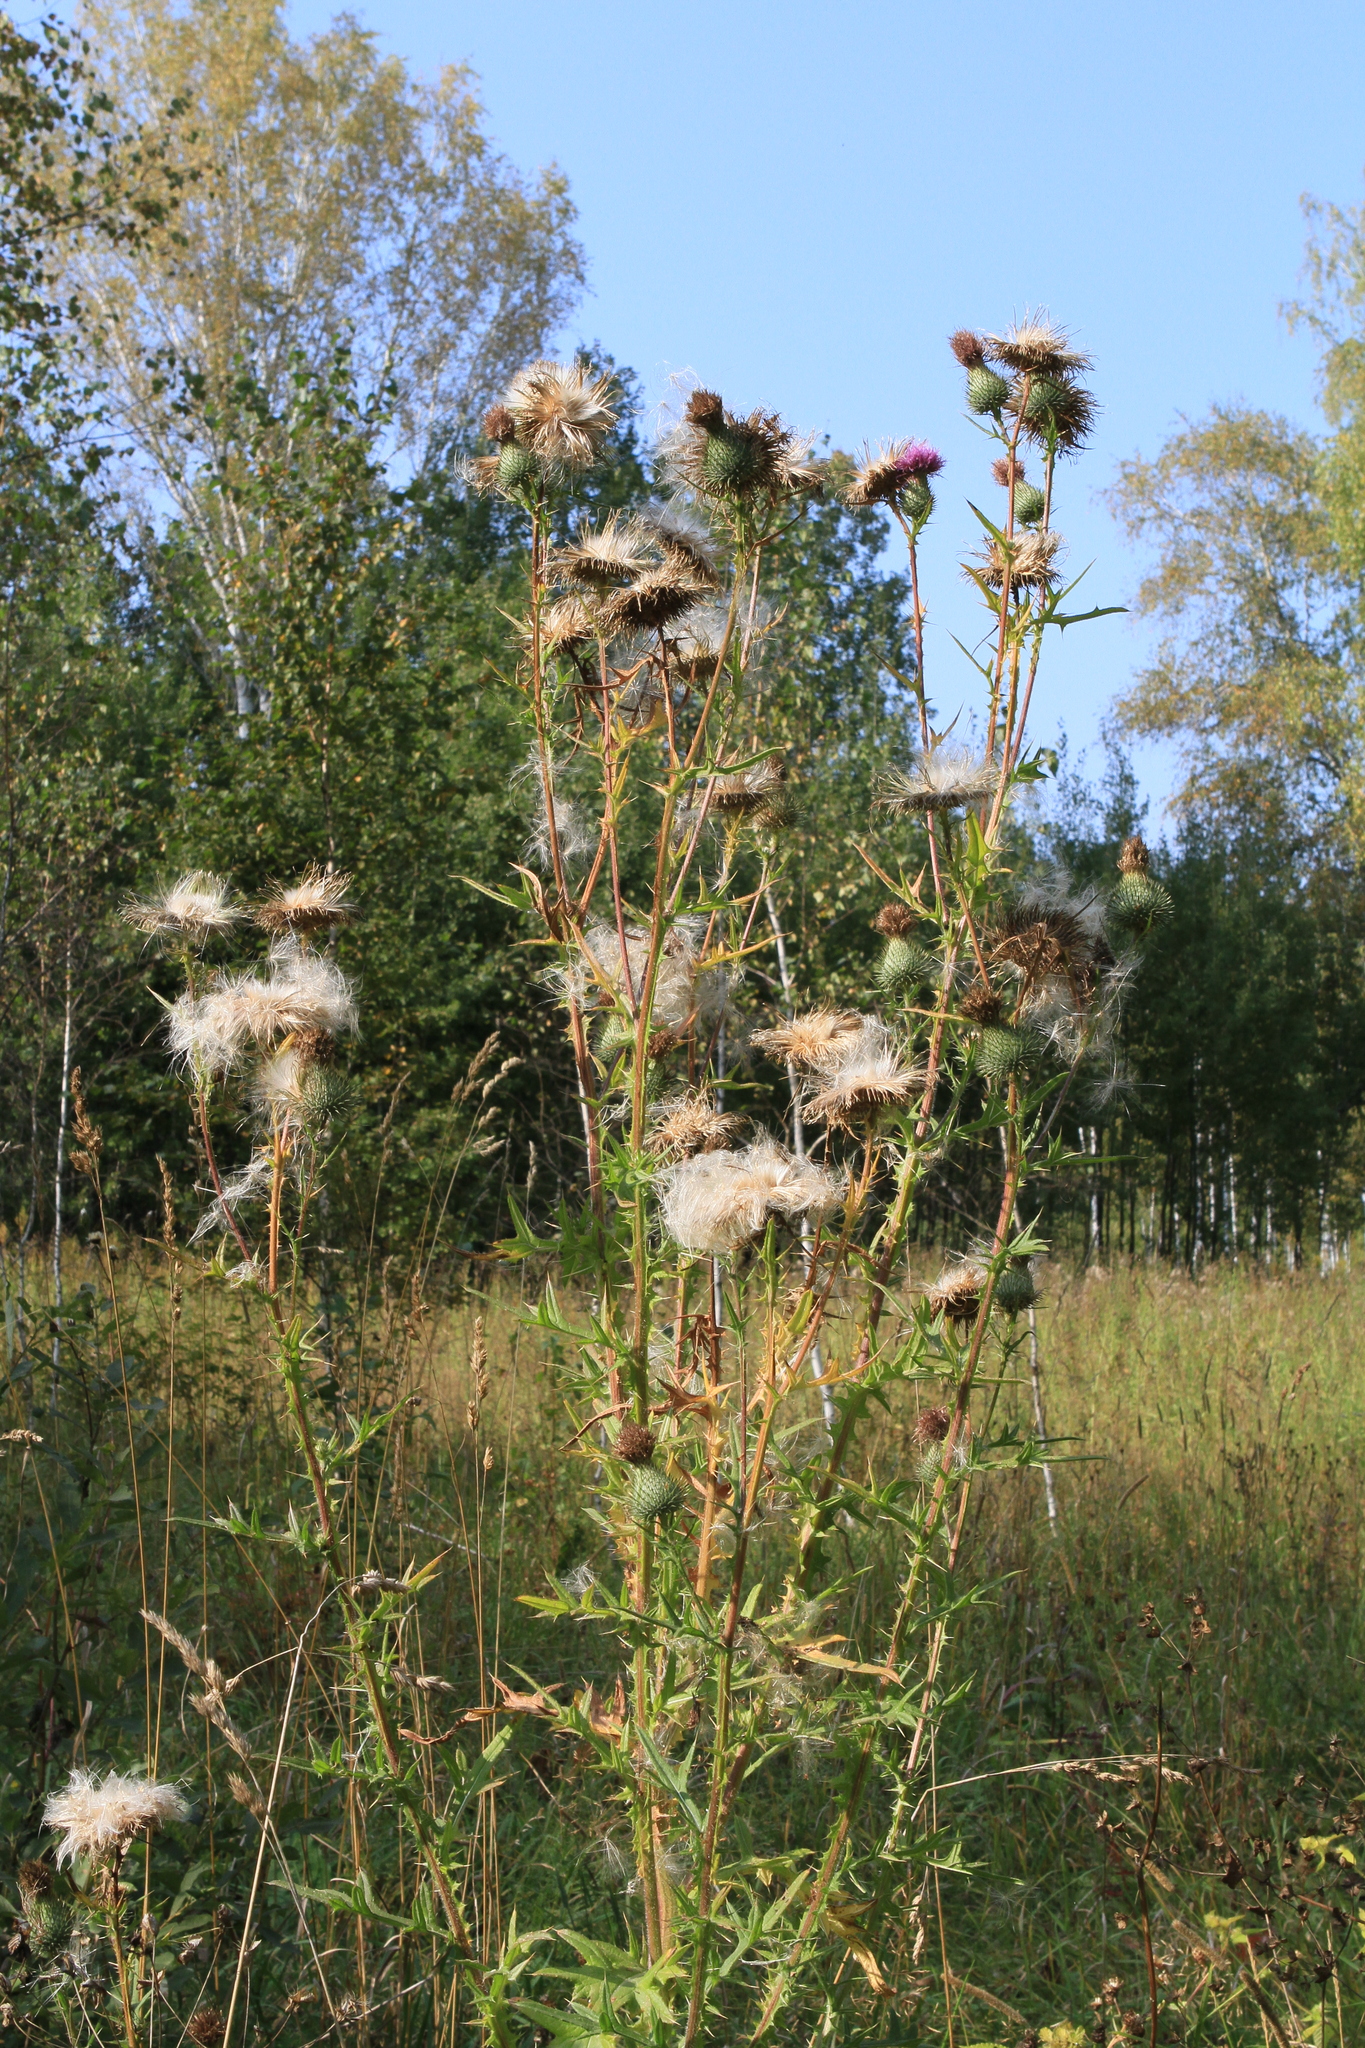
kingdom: Plantae
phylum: Tracheophyta
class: Magnoliopsida
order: Asterales
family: Asteraceae
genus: Cirsium
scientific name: Cirsium vulgare
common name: Bull thistle
